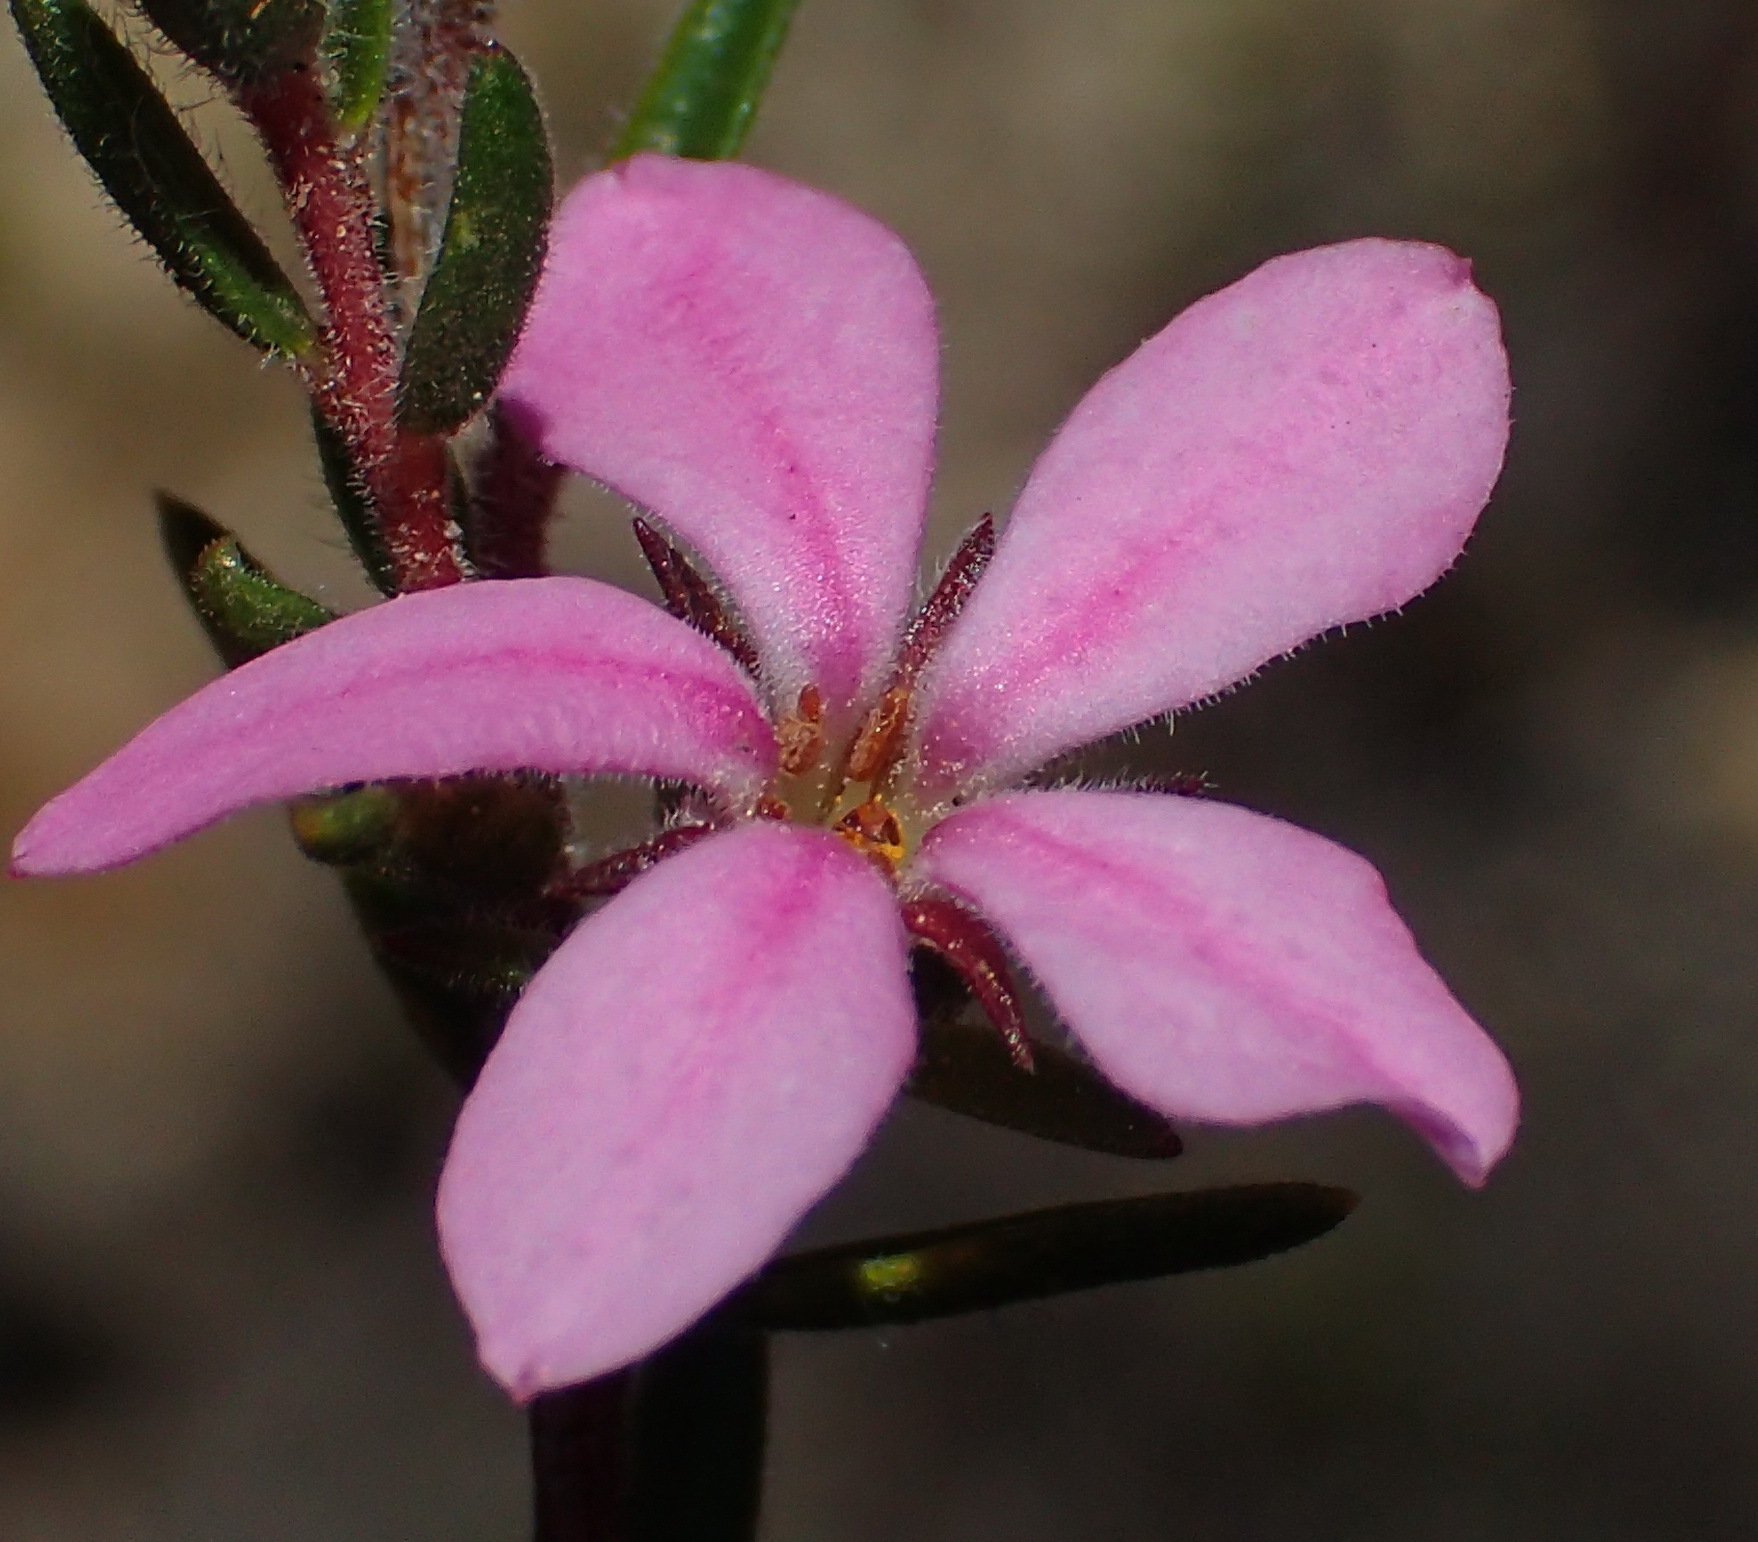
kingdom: Plantae
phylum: Tracheophyta
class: Magnoliopsida
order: Sapindales
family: Rutaceae
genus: Acmadenia
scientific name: Acmadenia trigona
